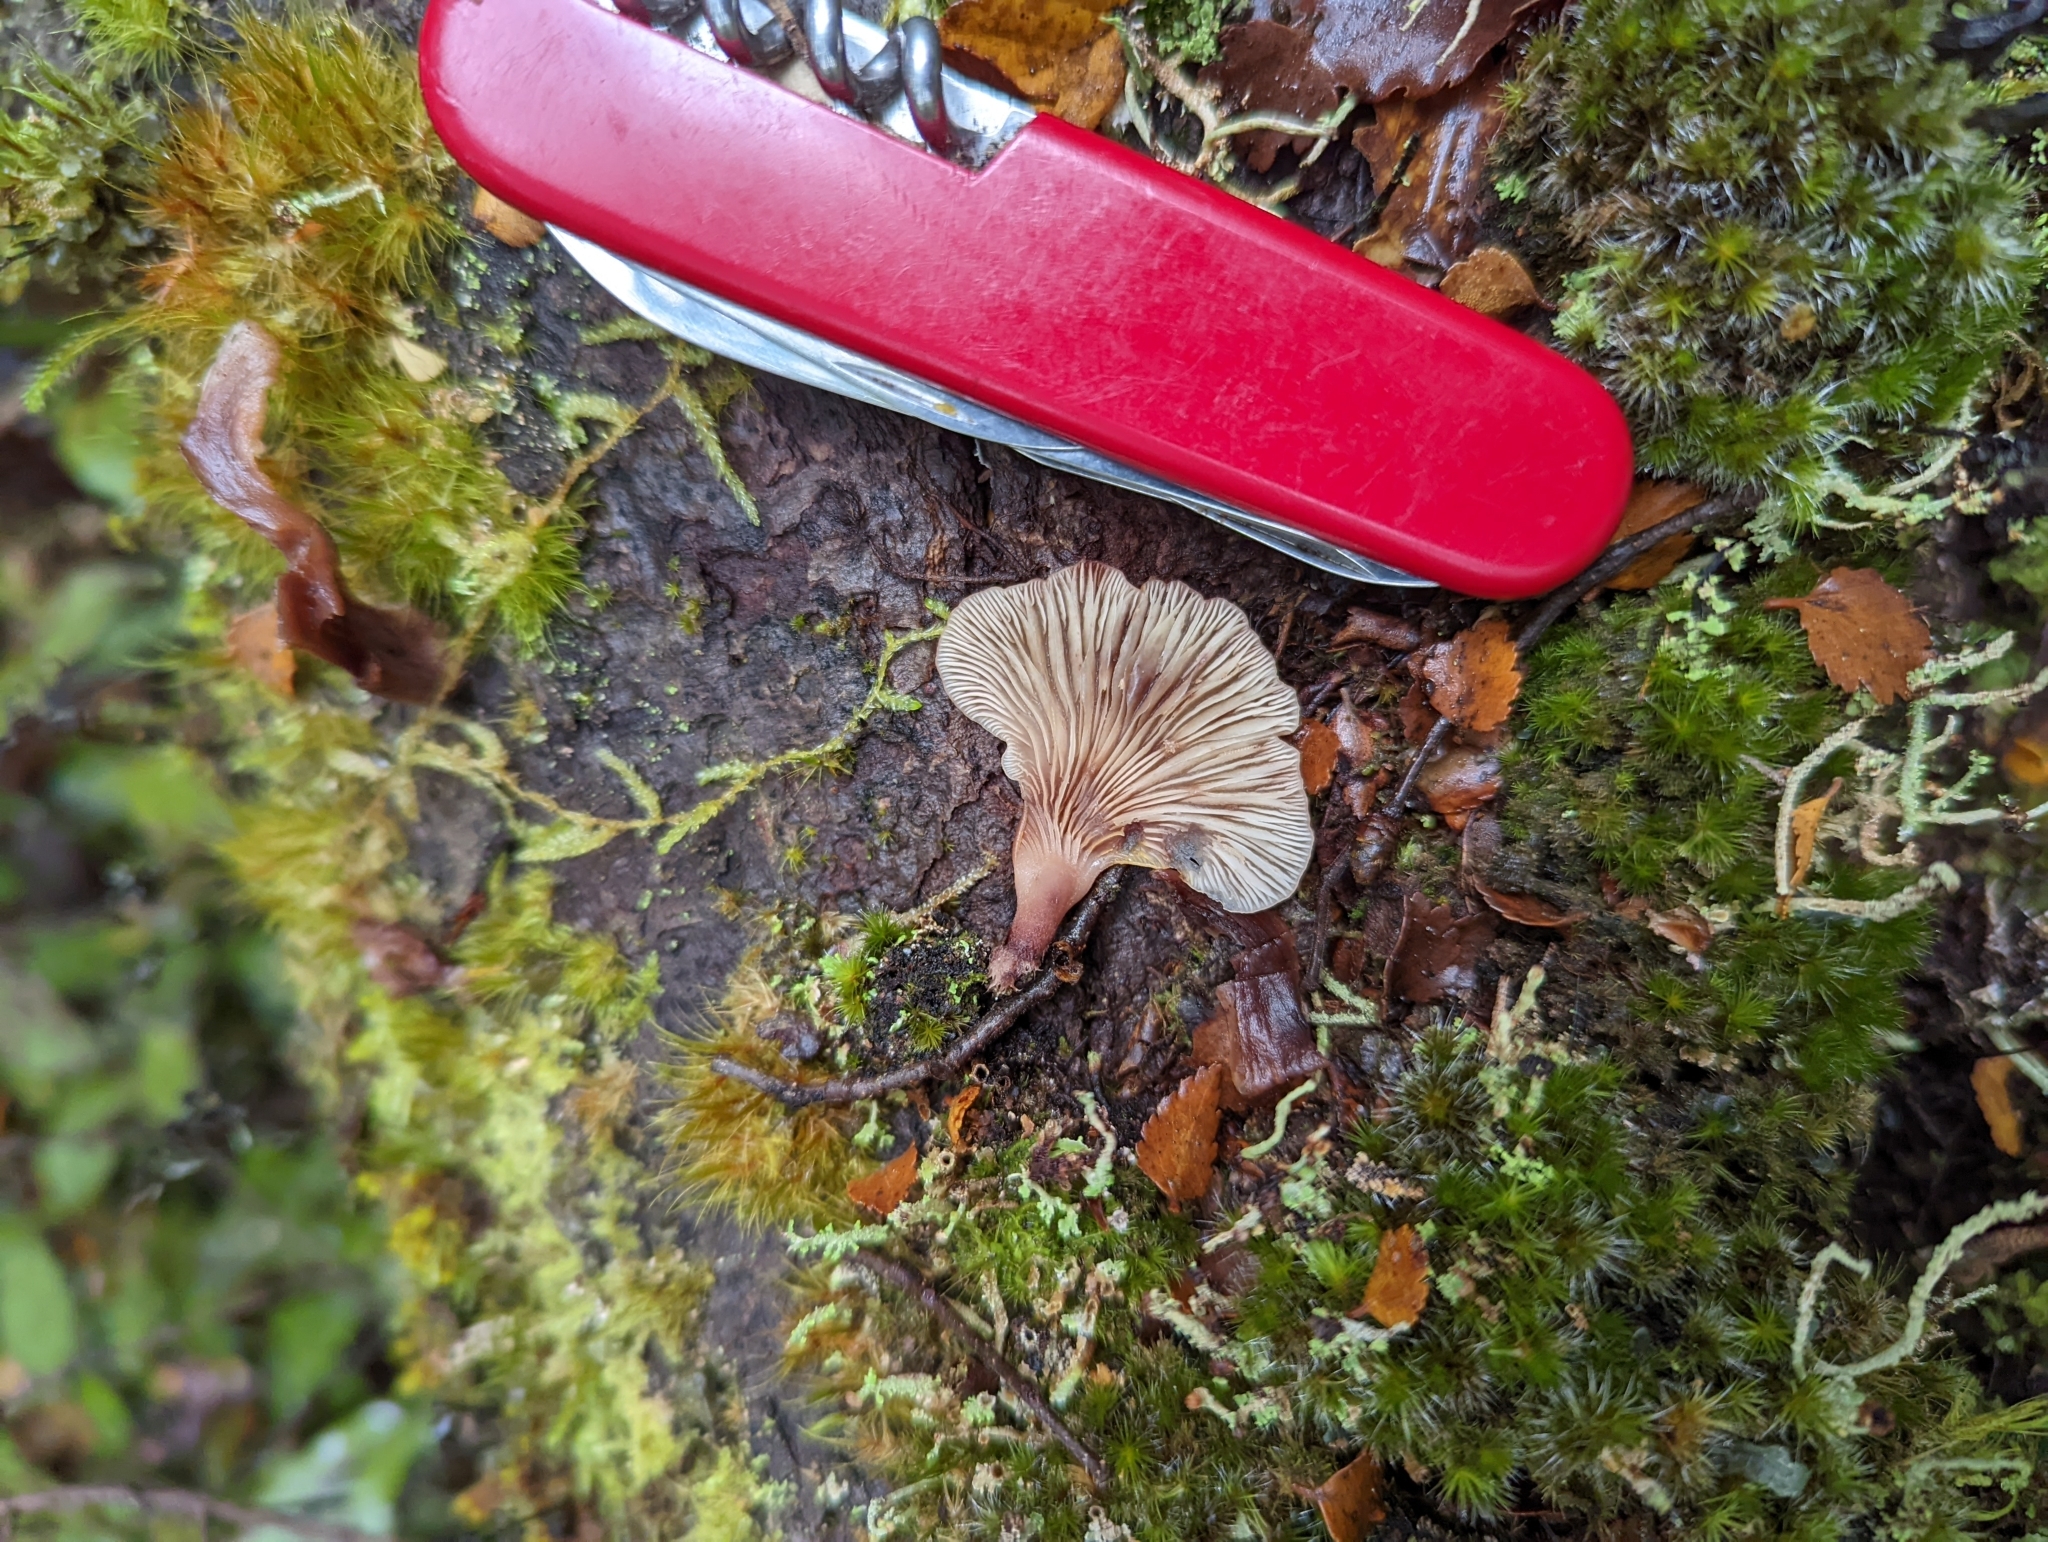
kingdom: Fungi
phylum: Basidiomycota
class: Agaricomycetes
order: Agaricales
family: Mycenaceae
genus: Panellus
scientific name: Panellus longinquus
